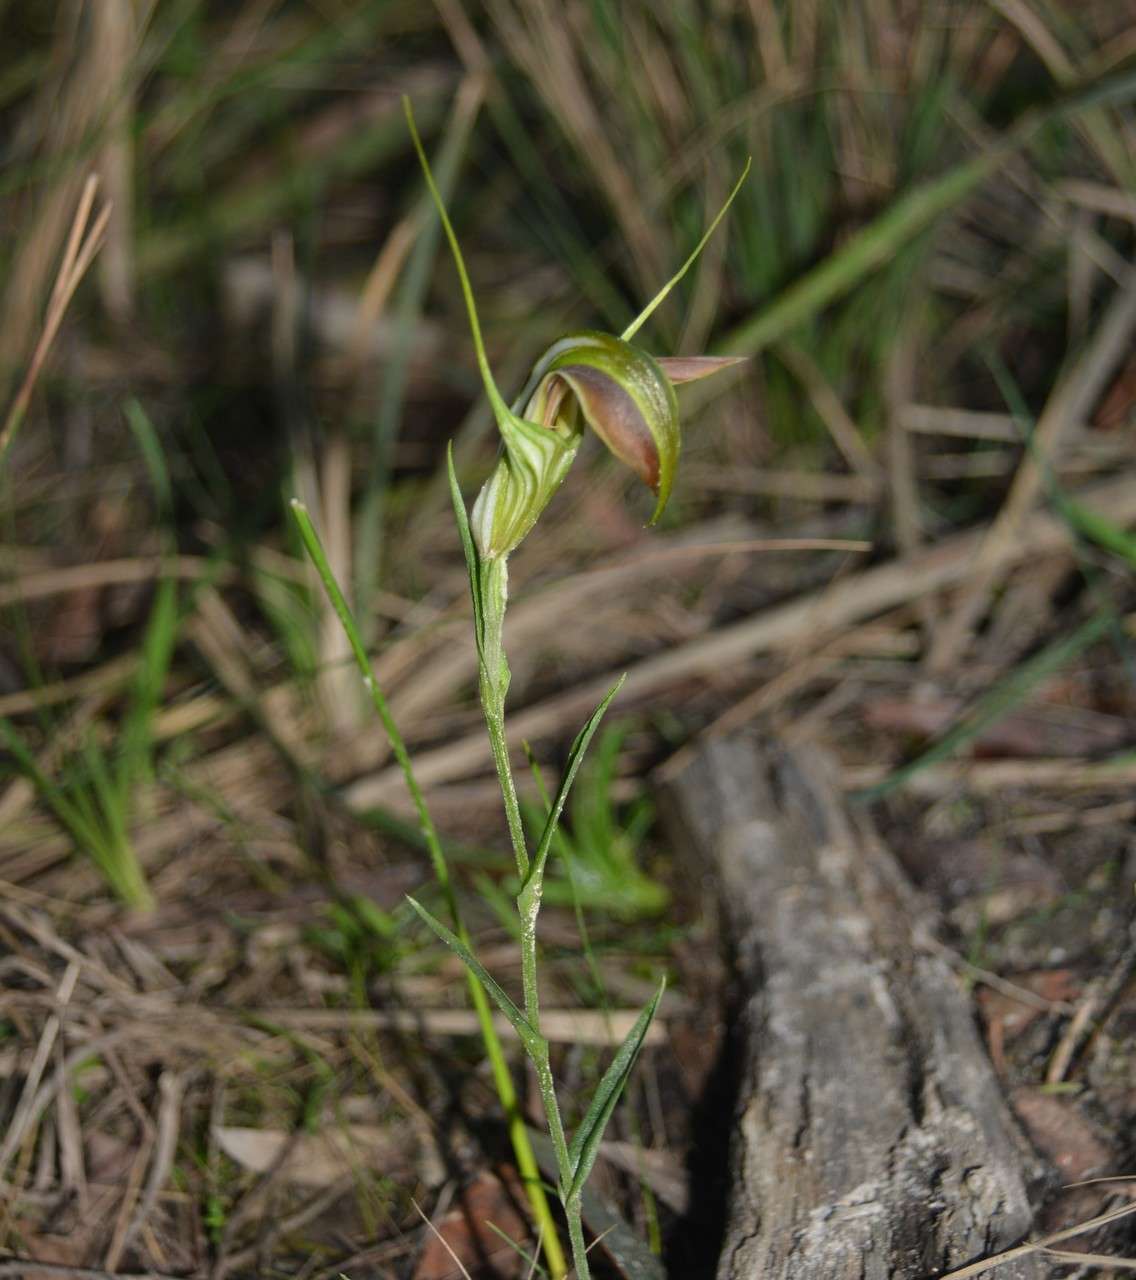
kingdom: Plantae
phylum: Tracheophyta
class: Liliopsida
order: Asparagales
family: Orchidaceae
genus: Pterostylis
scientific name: Pterostylis grandiflora
